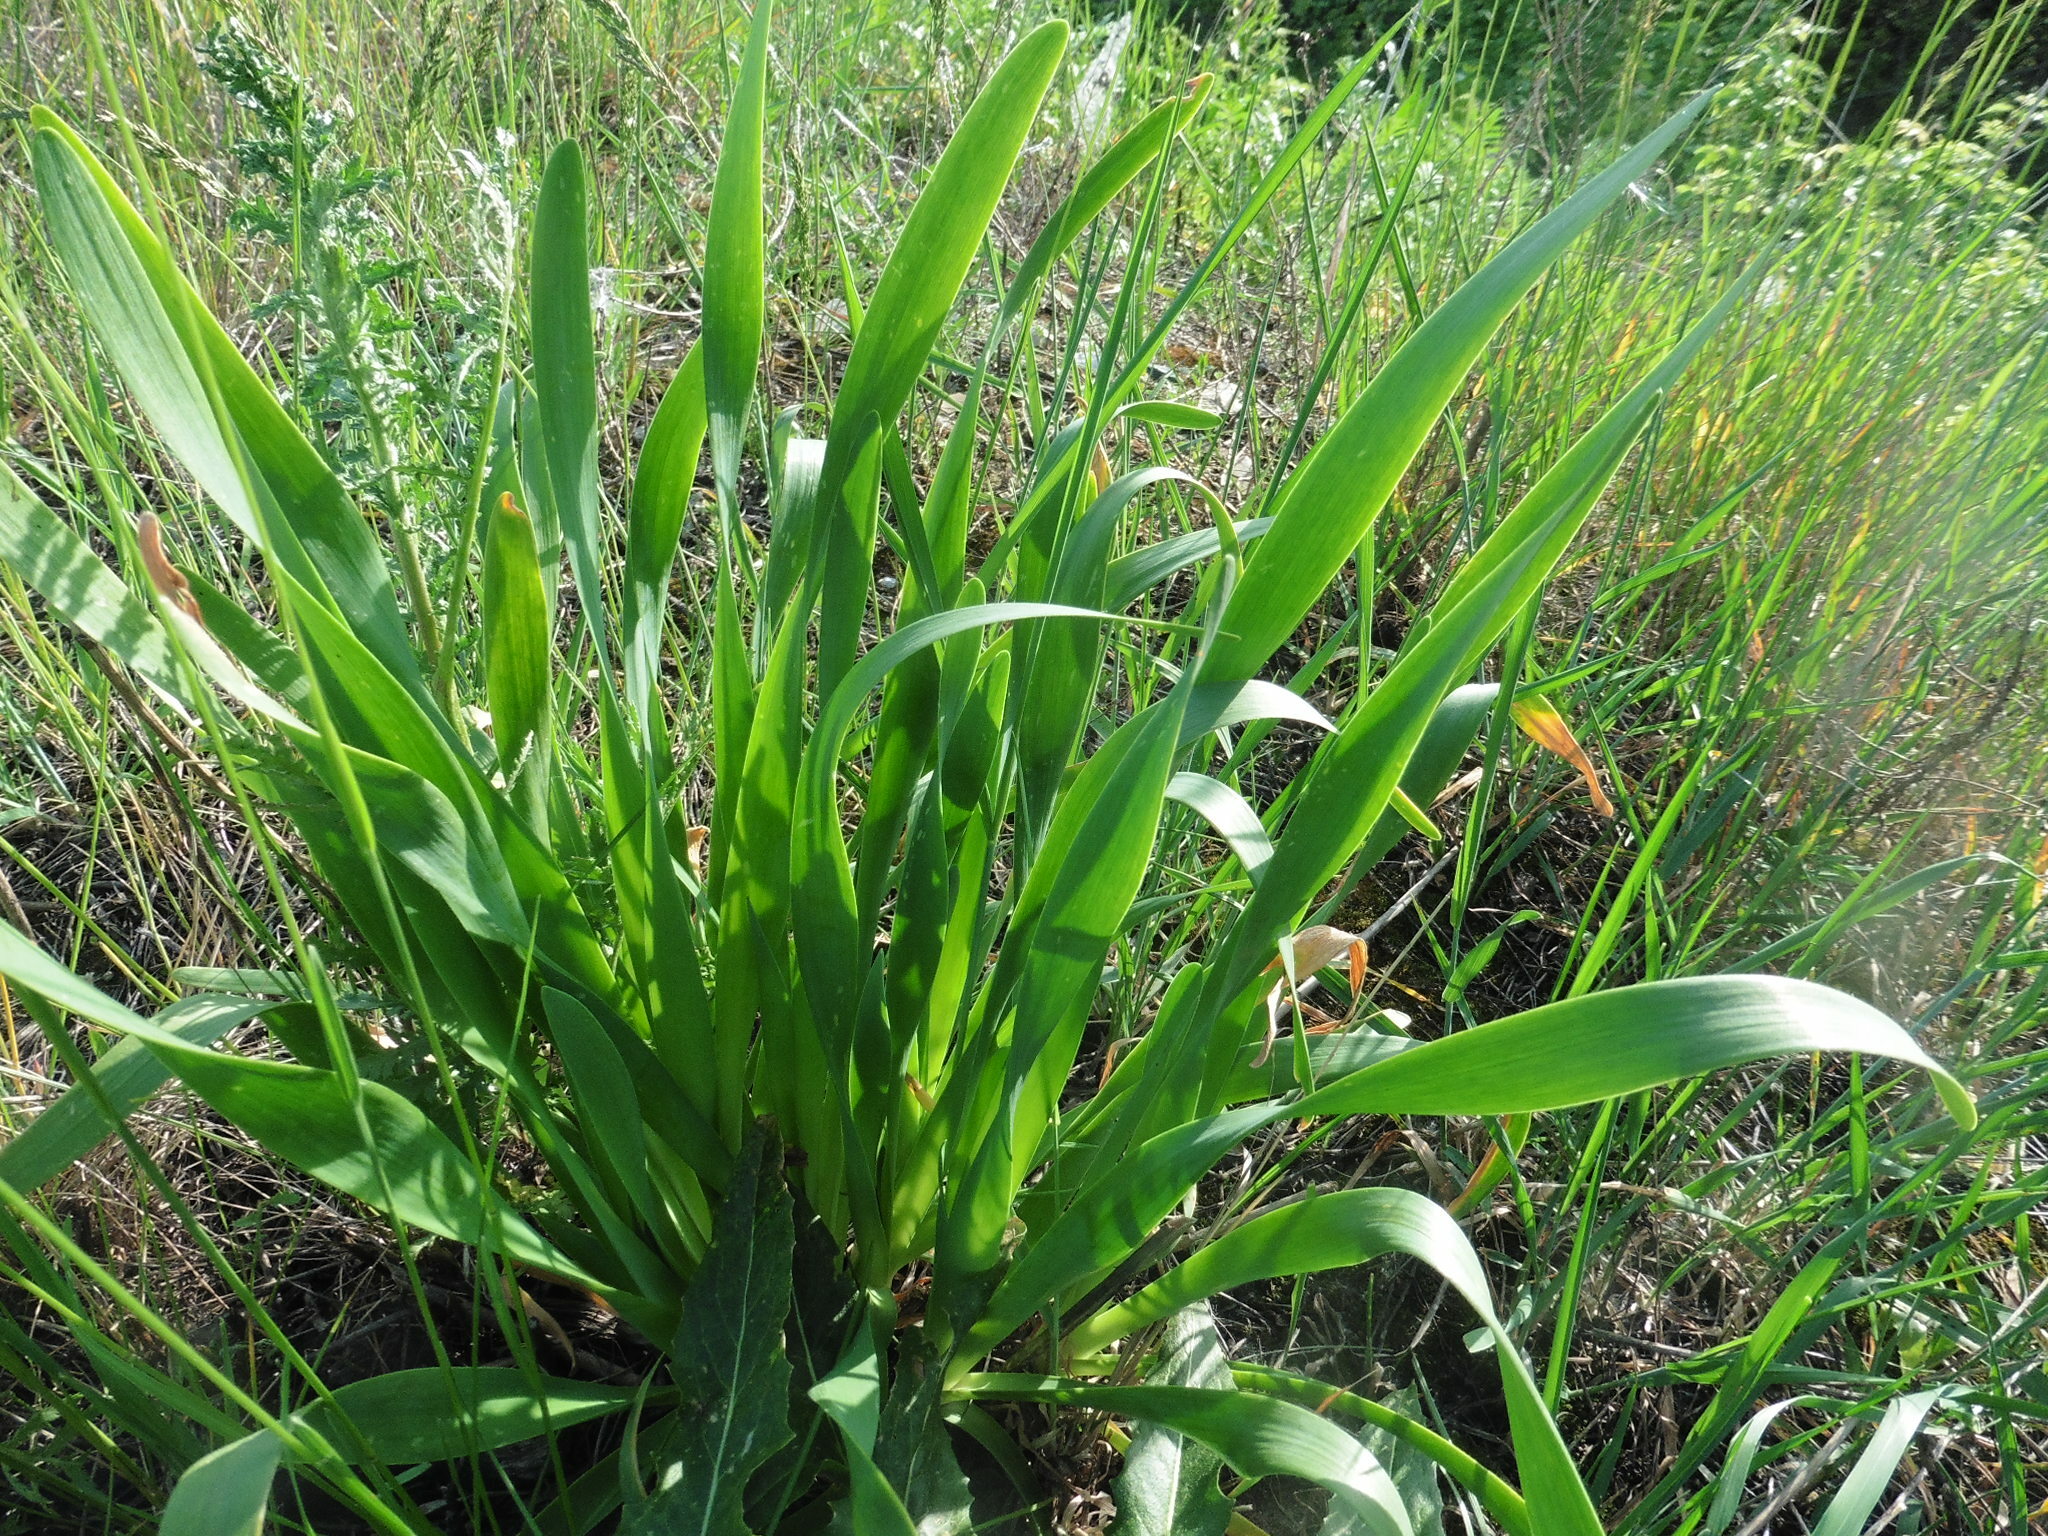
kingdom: Plantae
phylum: Tracheophyta
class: Liliopsida
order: Asparagales
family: Amaryllidaceae
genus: Allium
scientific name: Allium nutans
